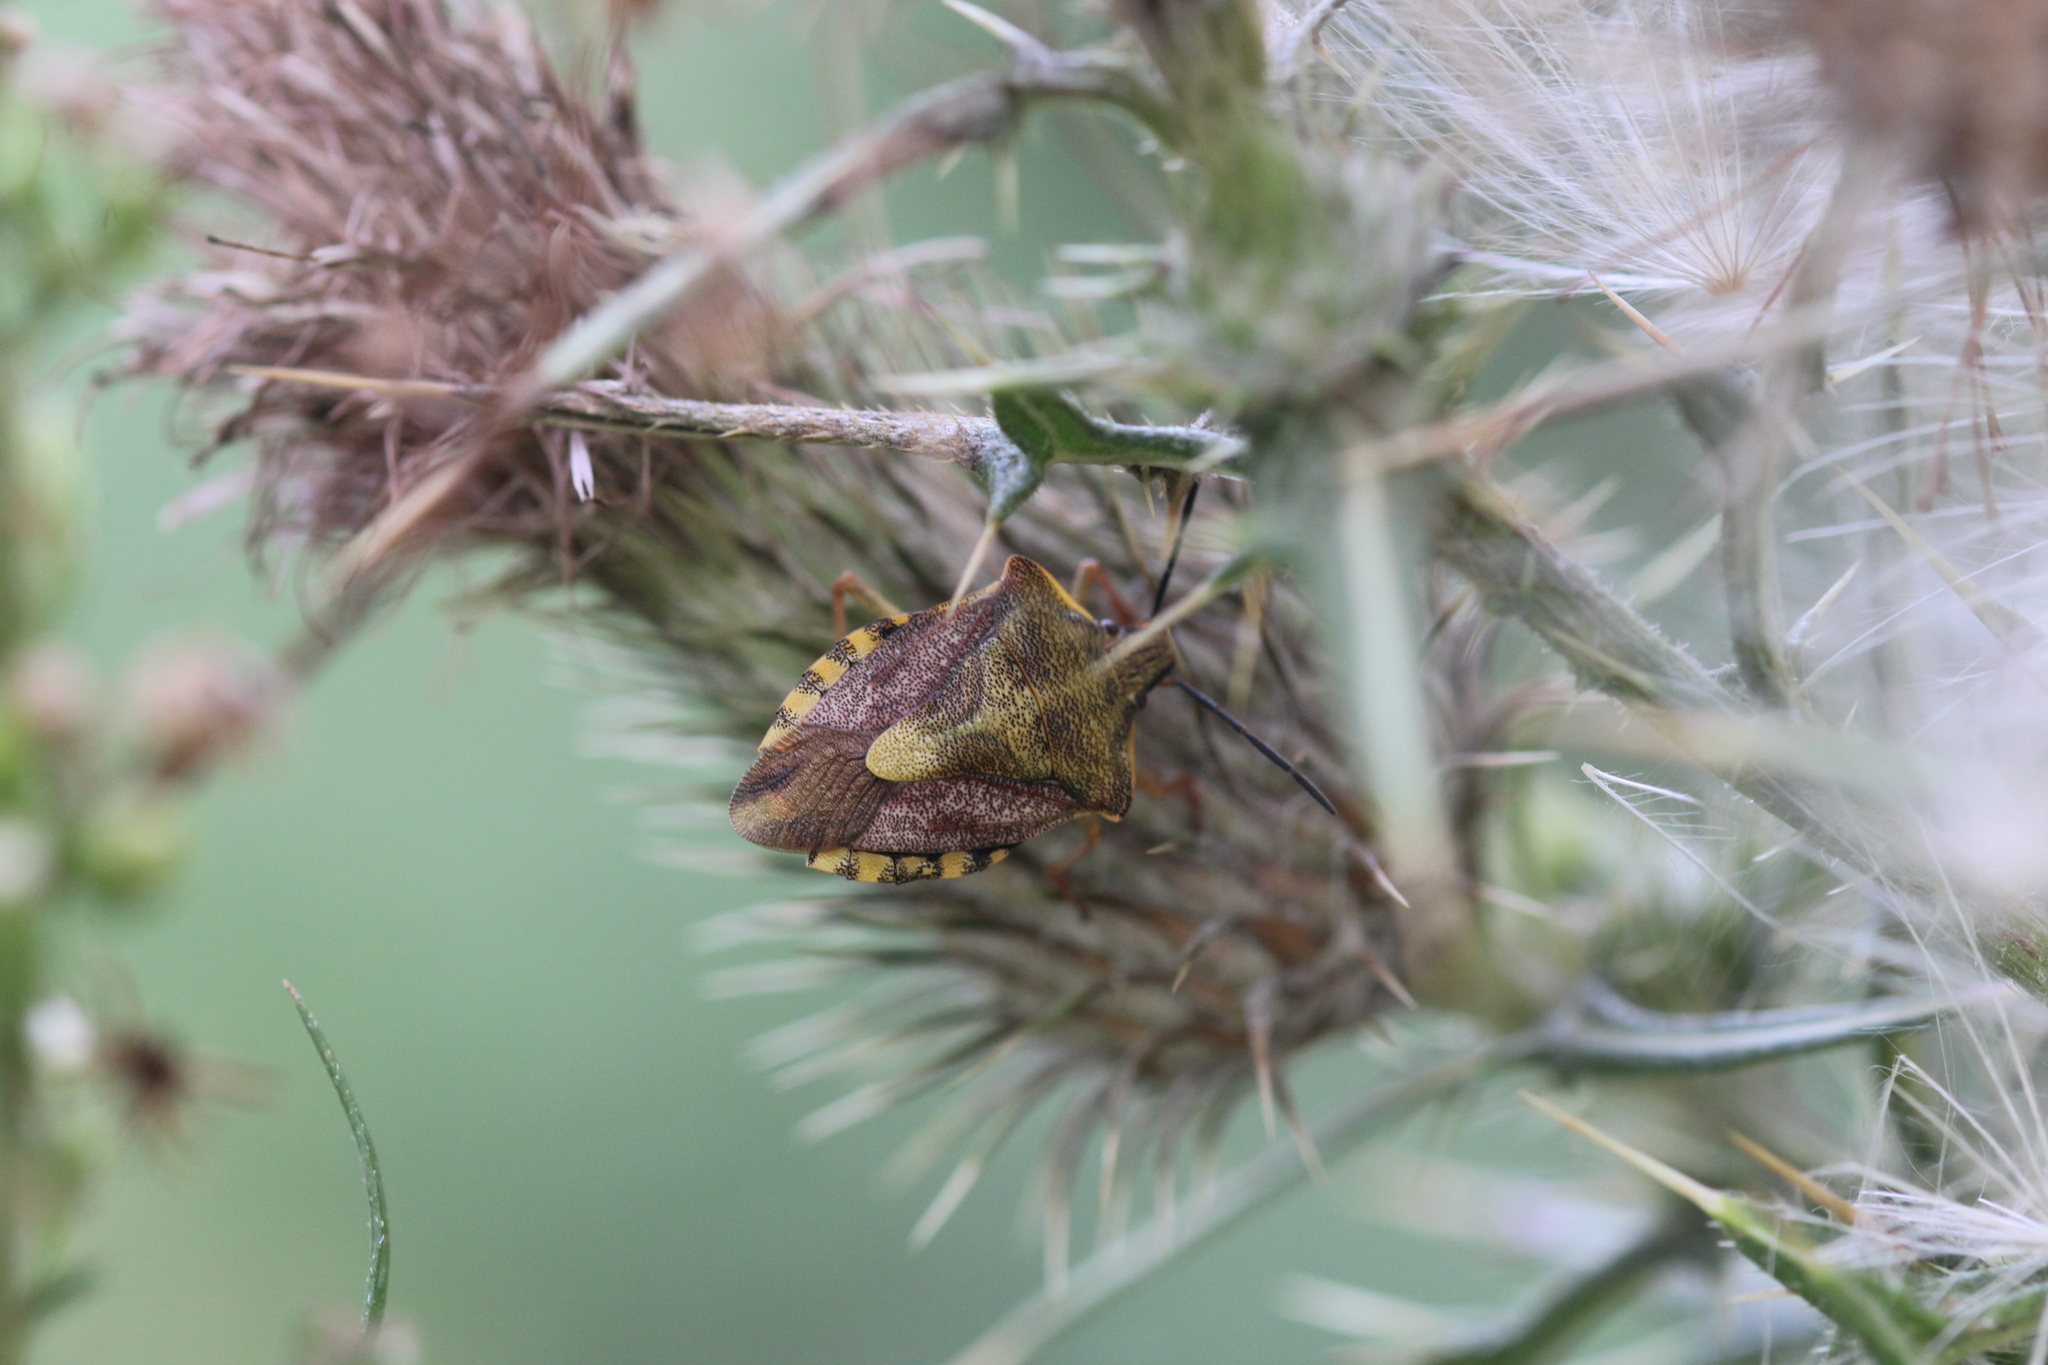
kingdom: Animalia
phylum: Arthropoda
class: Insecta
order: Hemiptera
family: Pentatomidae
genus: Carpocoris
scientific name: Carpocoris purpureipennis
